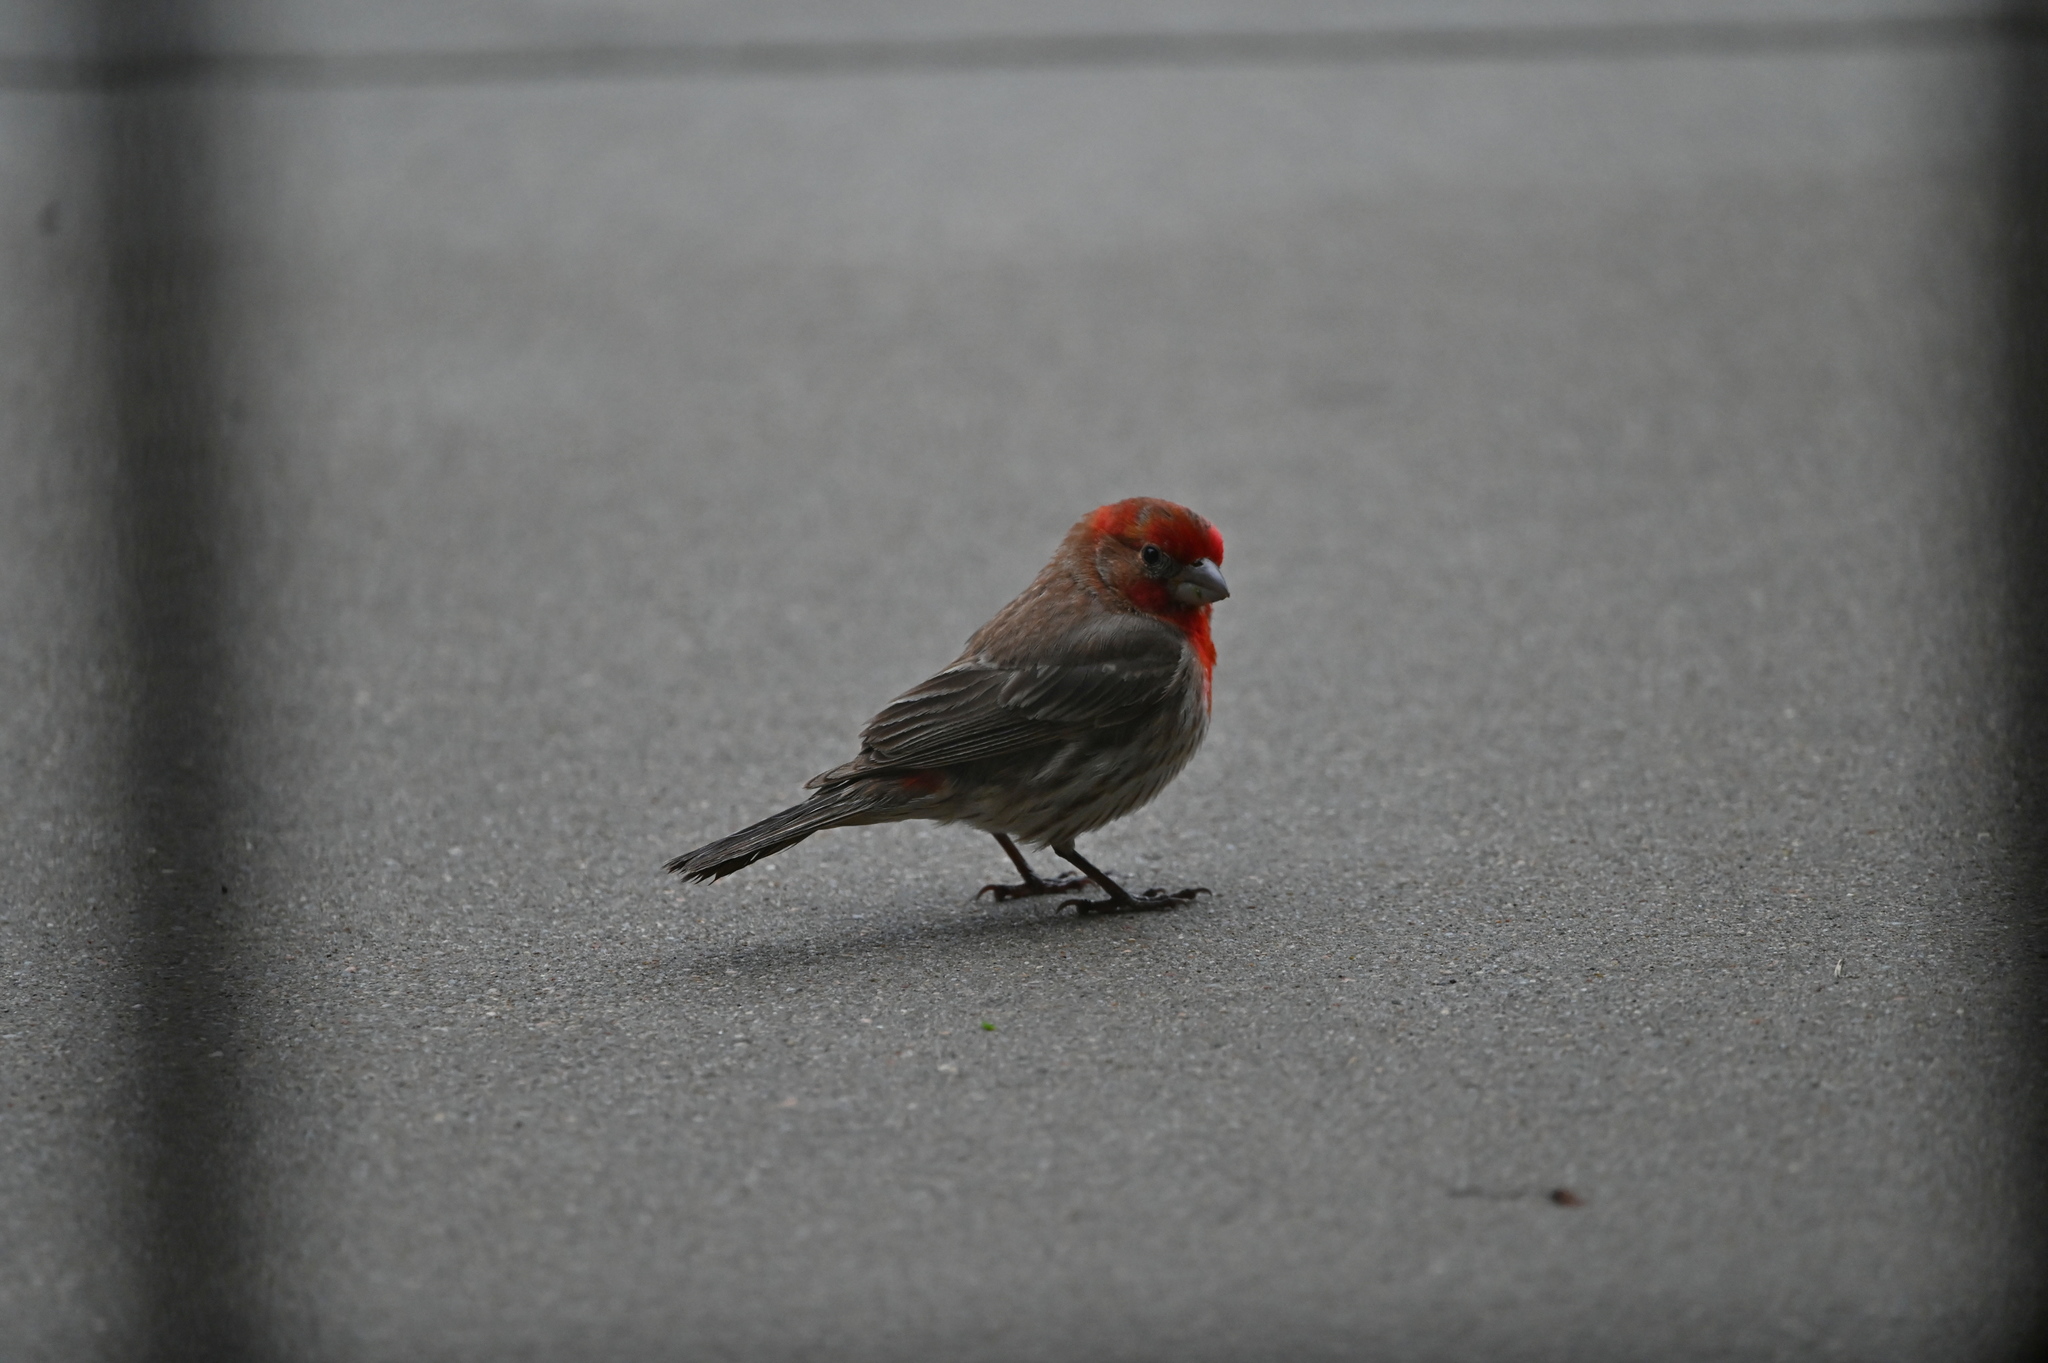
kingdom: Animalia
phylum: Chordata
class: Aves
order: Passeriformes
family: Fringillidae
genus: Haemorhous
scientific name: Haemorhous mexicanus
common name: House finch
